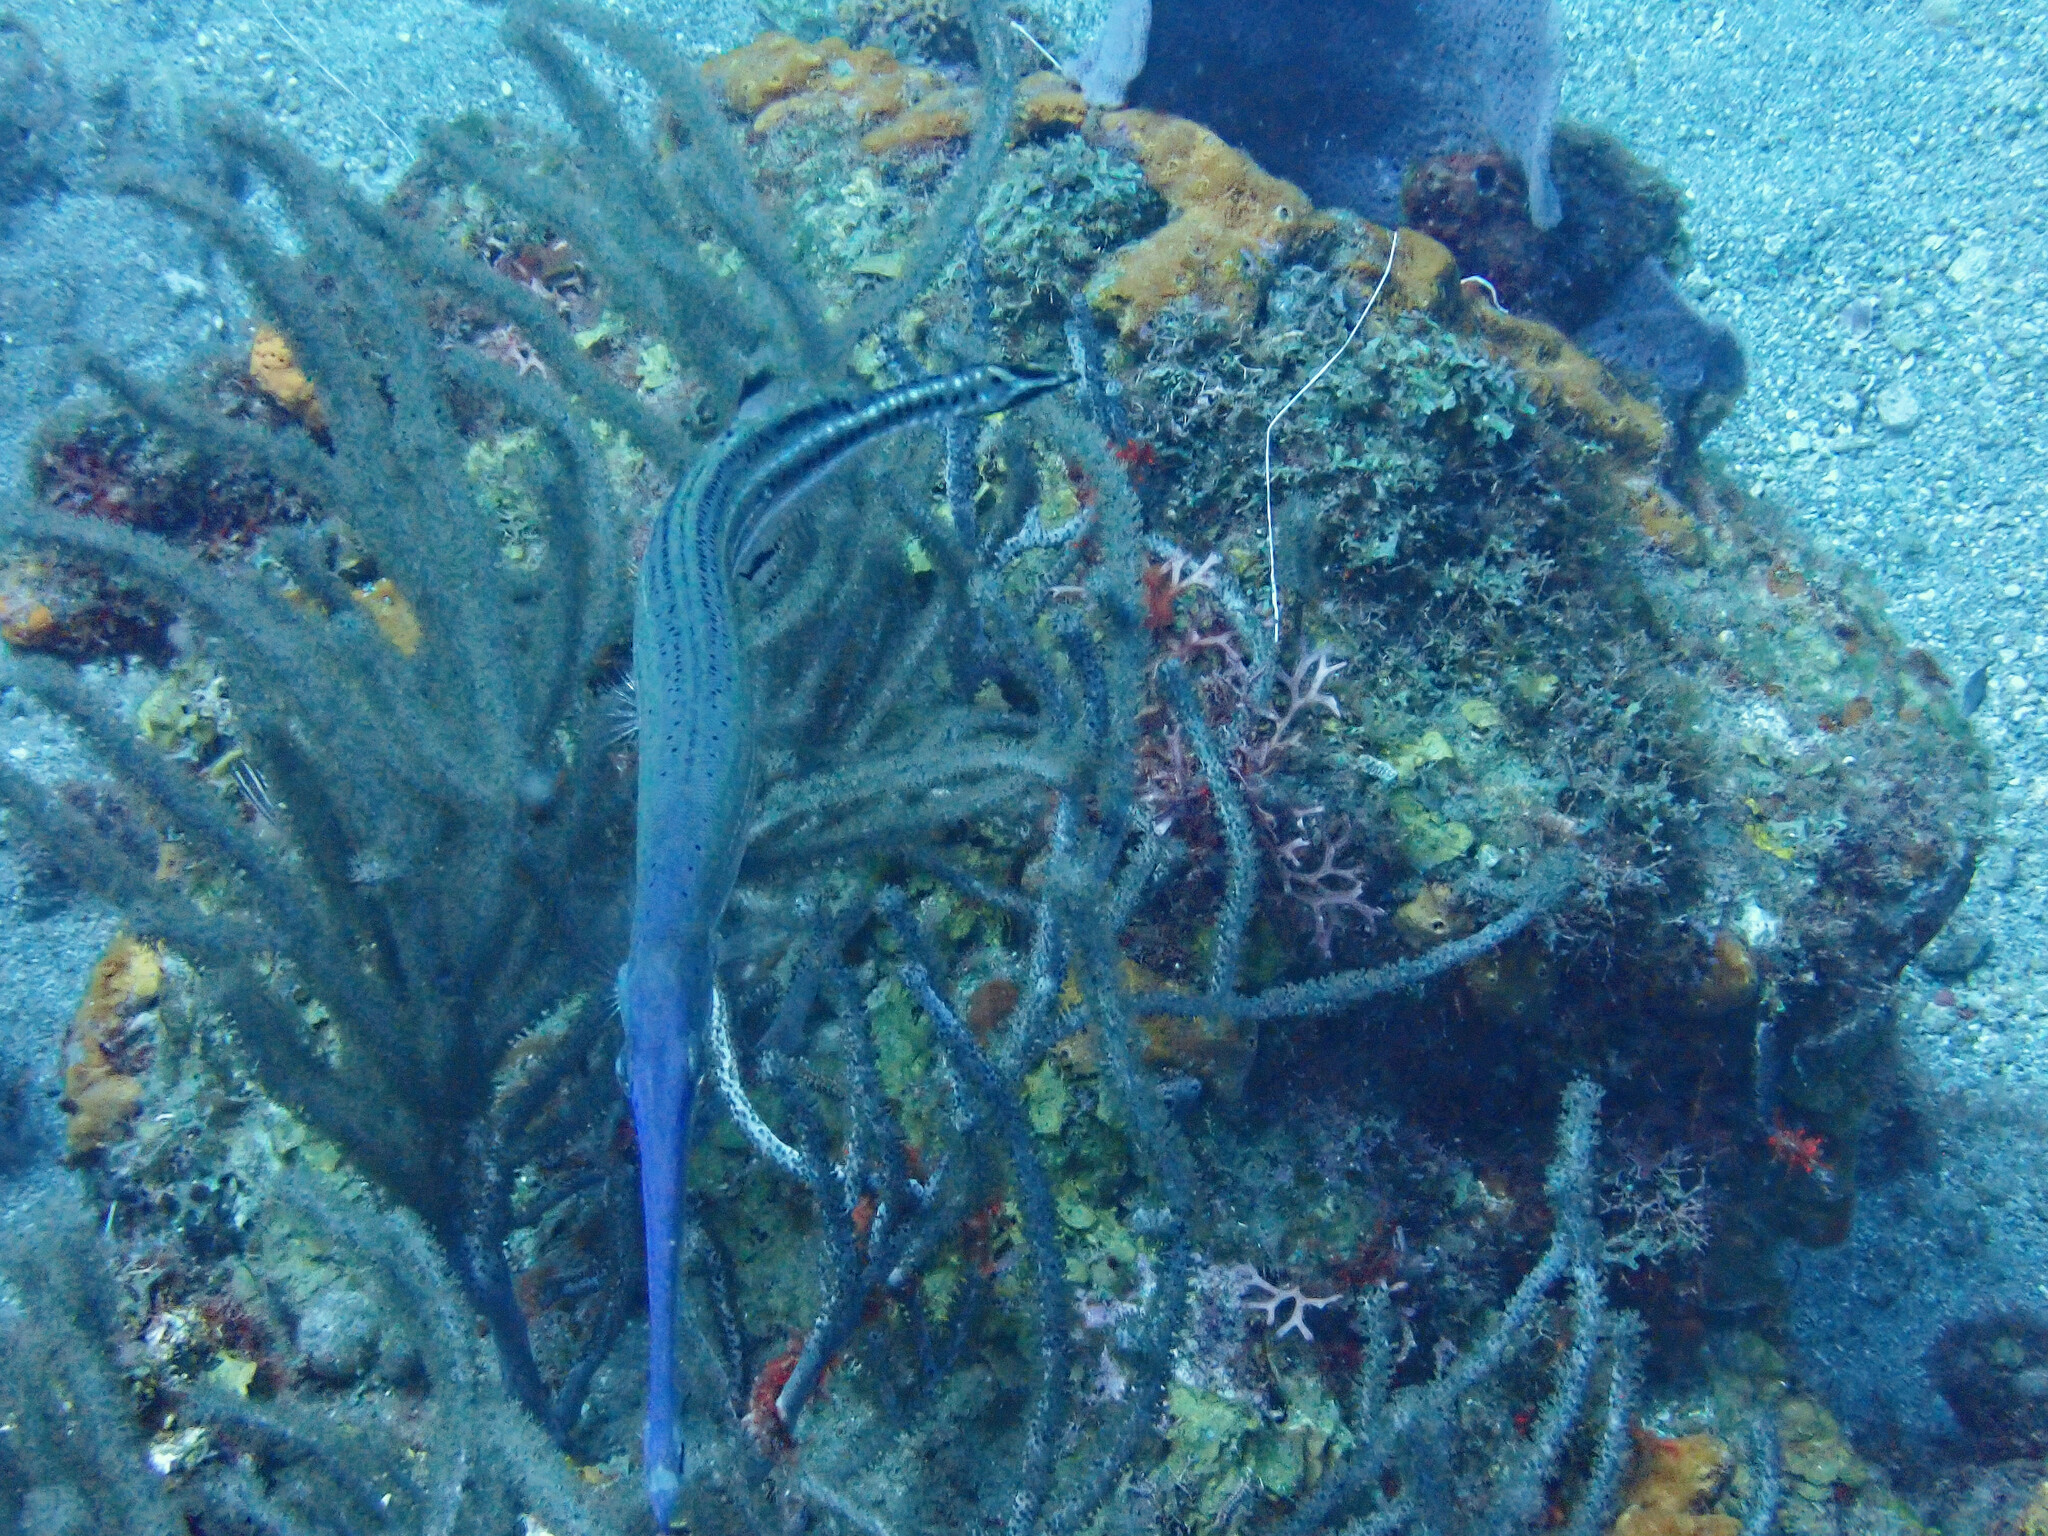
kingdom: Animalia
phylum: Chordata
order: Syngnathiformes
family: Aulostomidae
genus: Aulostomus
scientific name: Aulostomus maculatus
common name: West atlantic trumpetfish
